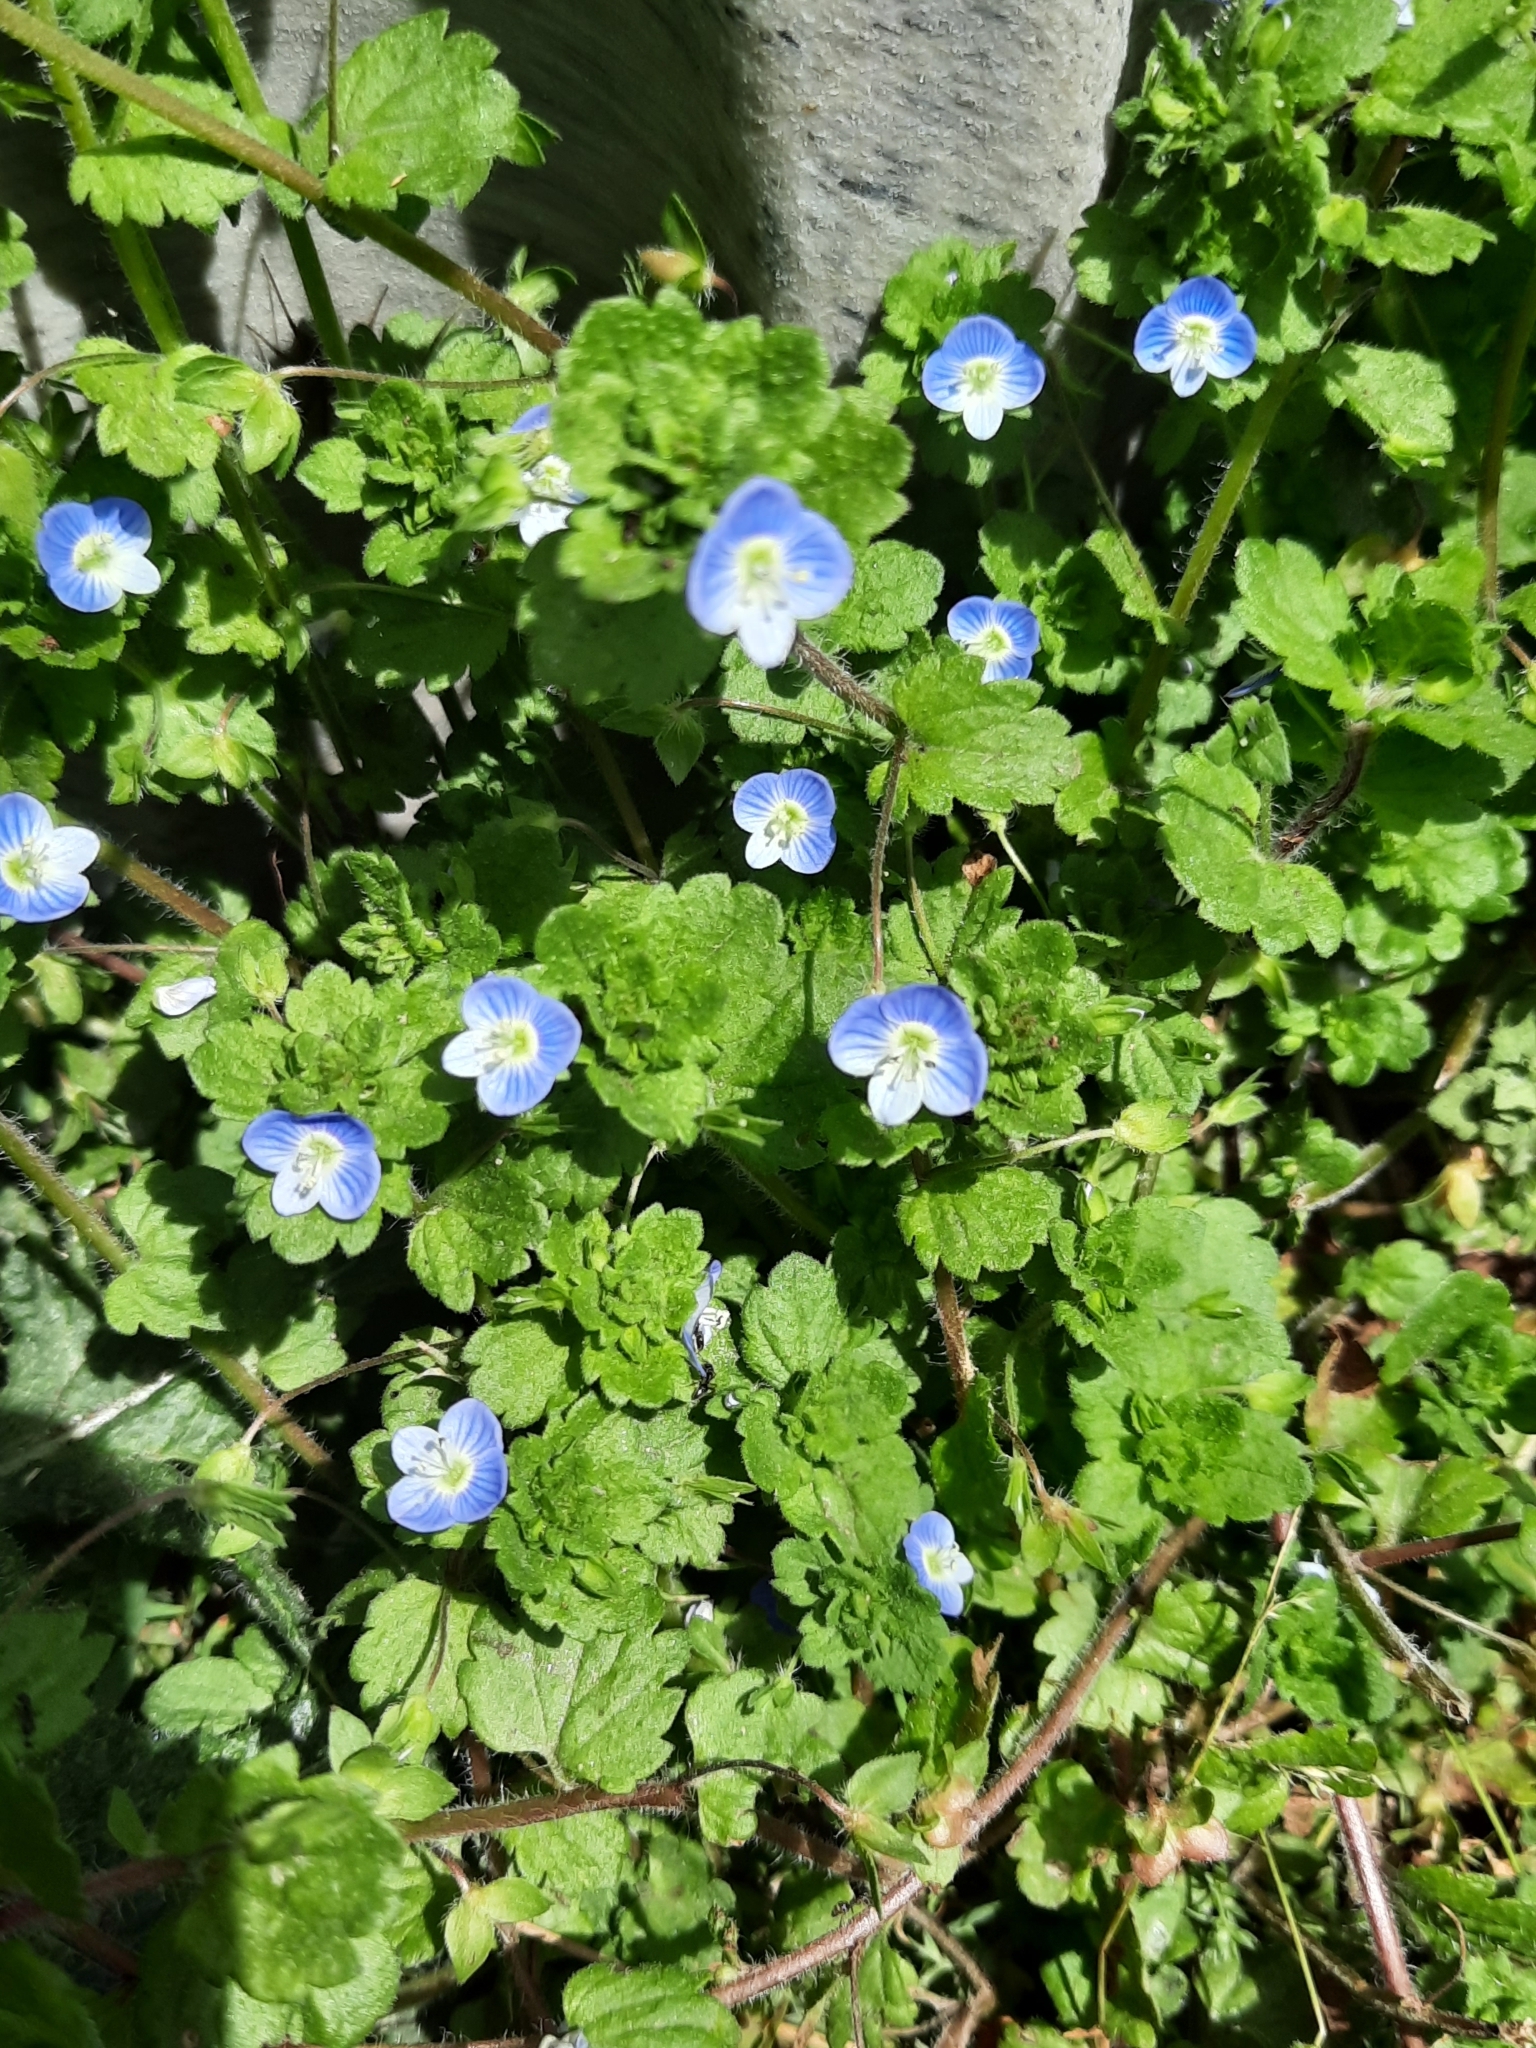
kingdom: Plantae
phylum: Tracheophyta
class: Magnoliopsida
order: Lamiales
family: Plantaginaceae
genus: Veronica
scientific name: Veronica persica
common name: Common field-speedwell
